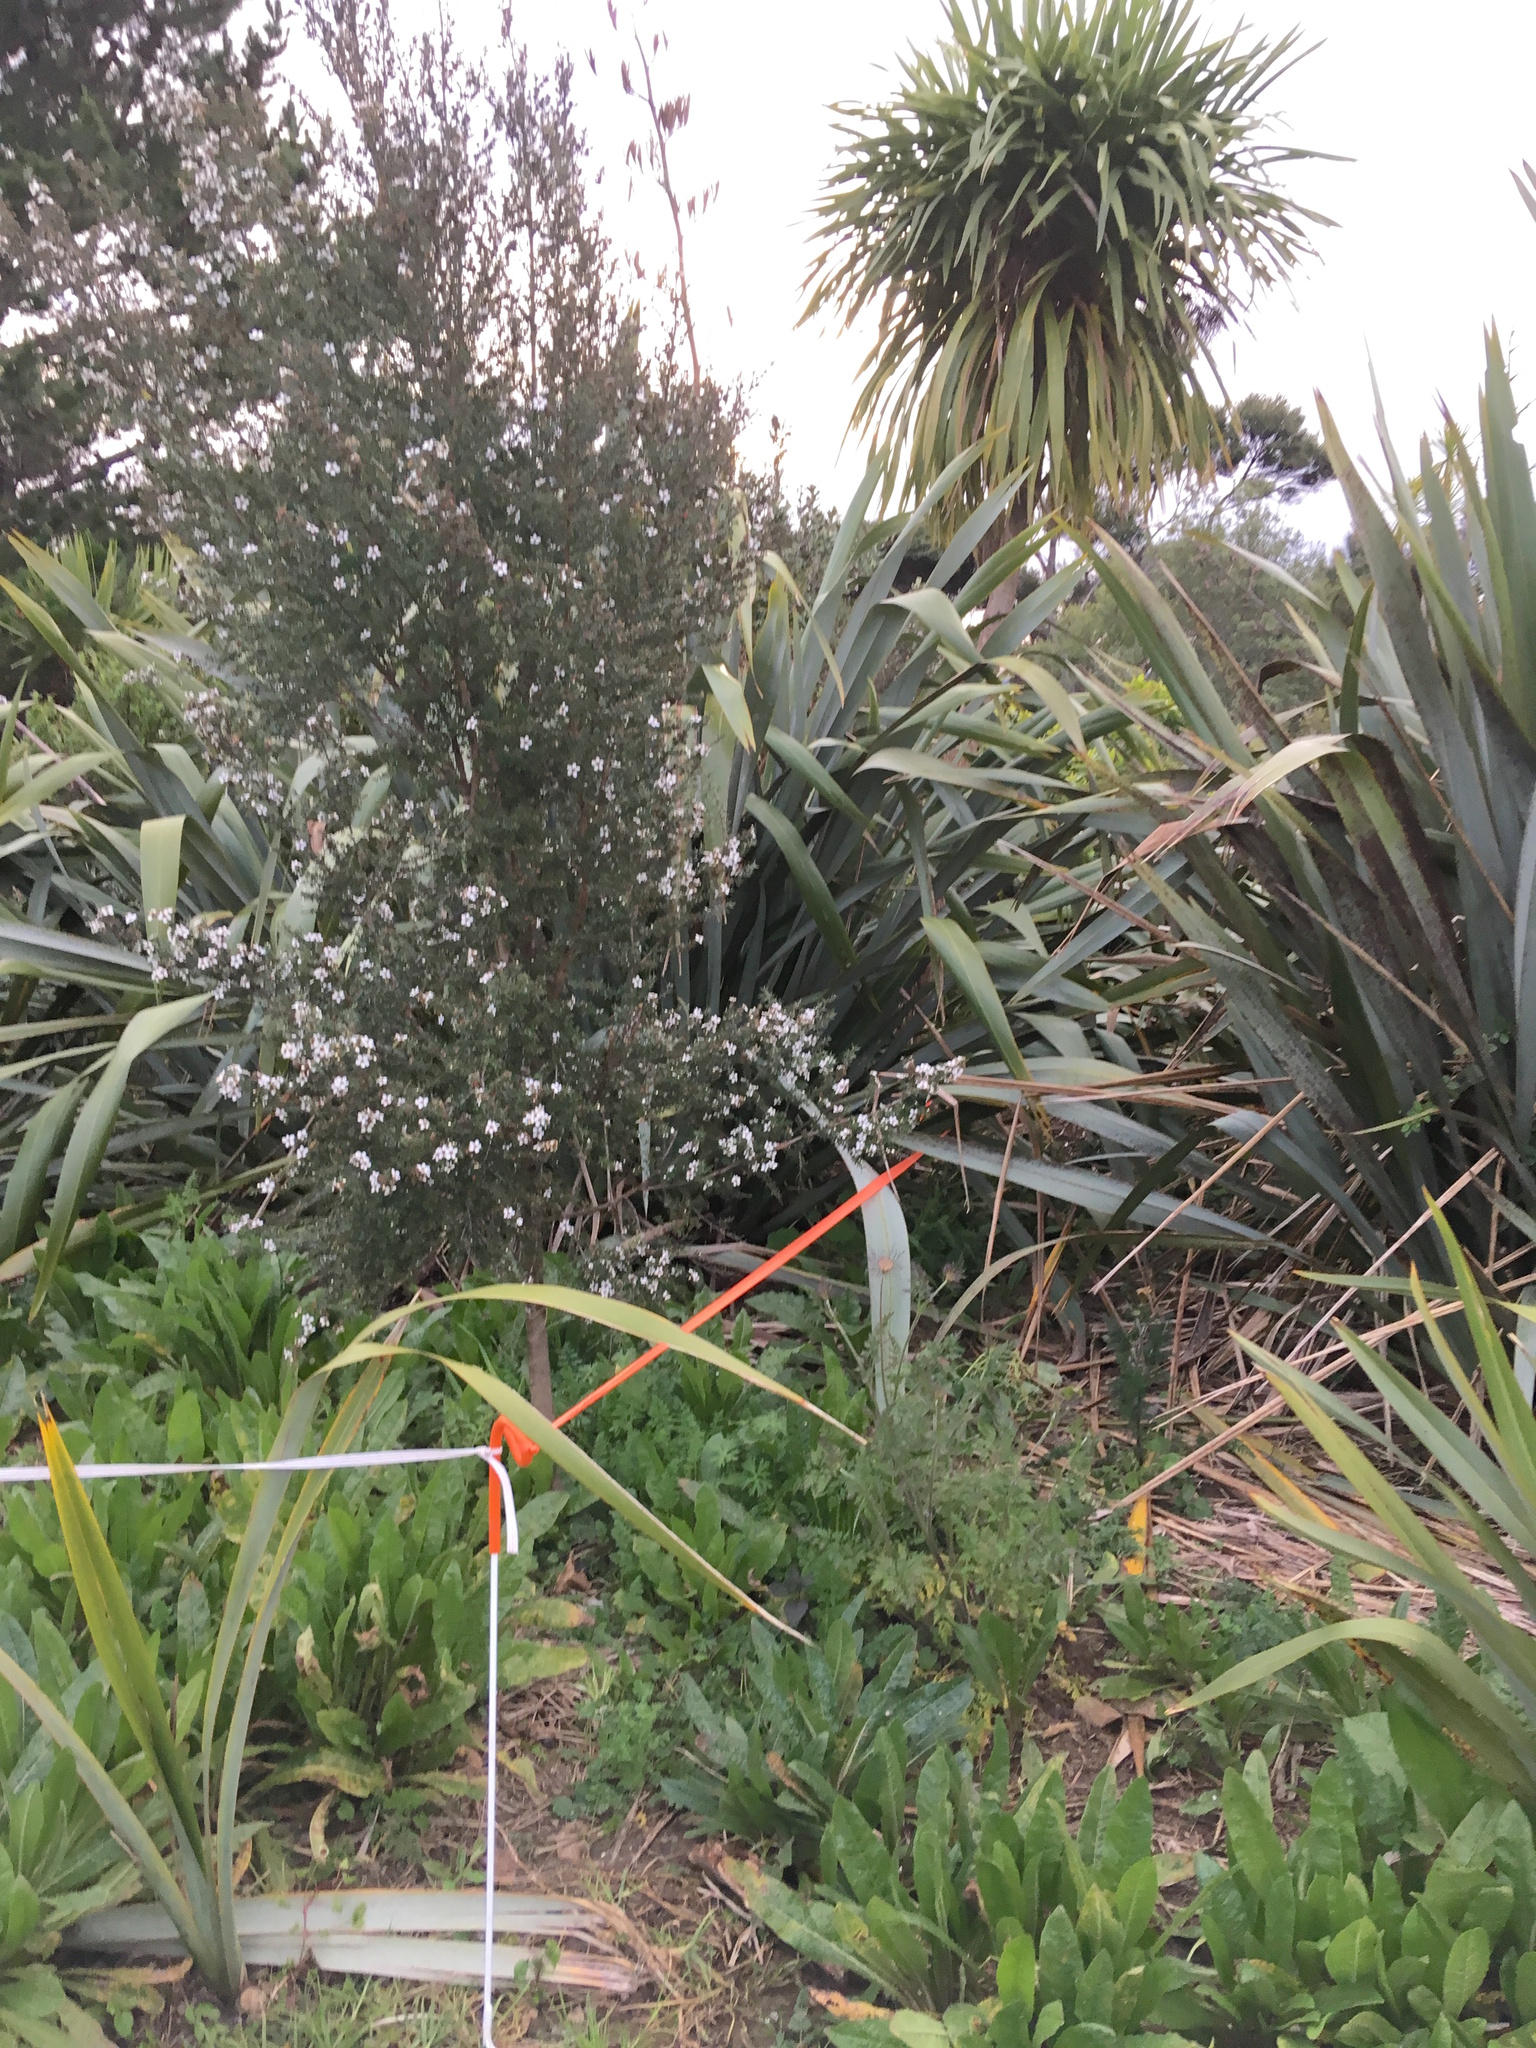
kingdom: Plantae
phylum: Tracheophyta
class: Magnoliopsida
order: Asterales
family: Asteraceae
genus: Helminthotheca
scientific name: Helminthotheca echioides
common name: Ox-tongue
